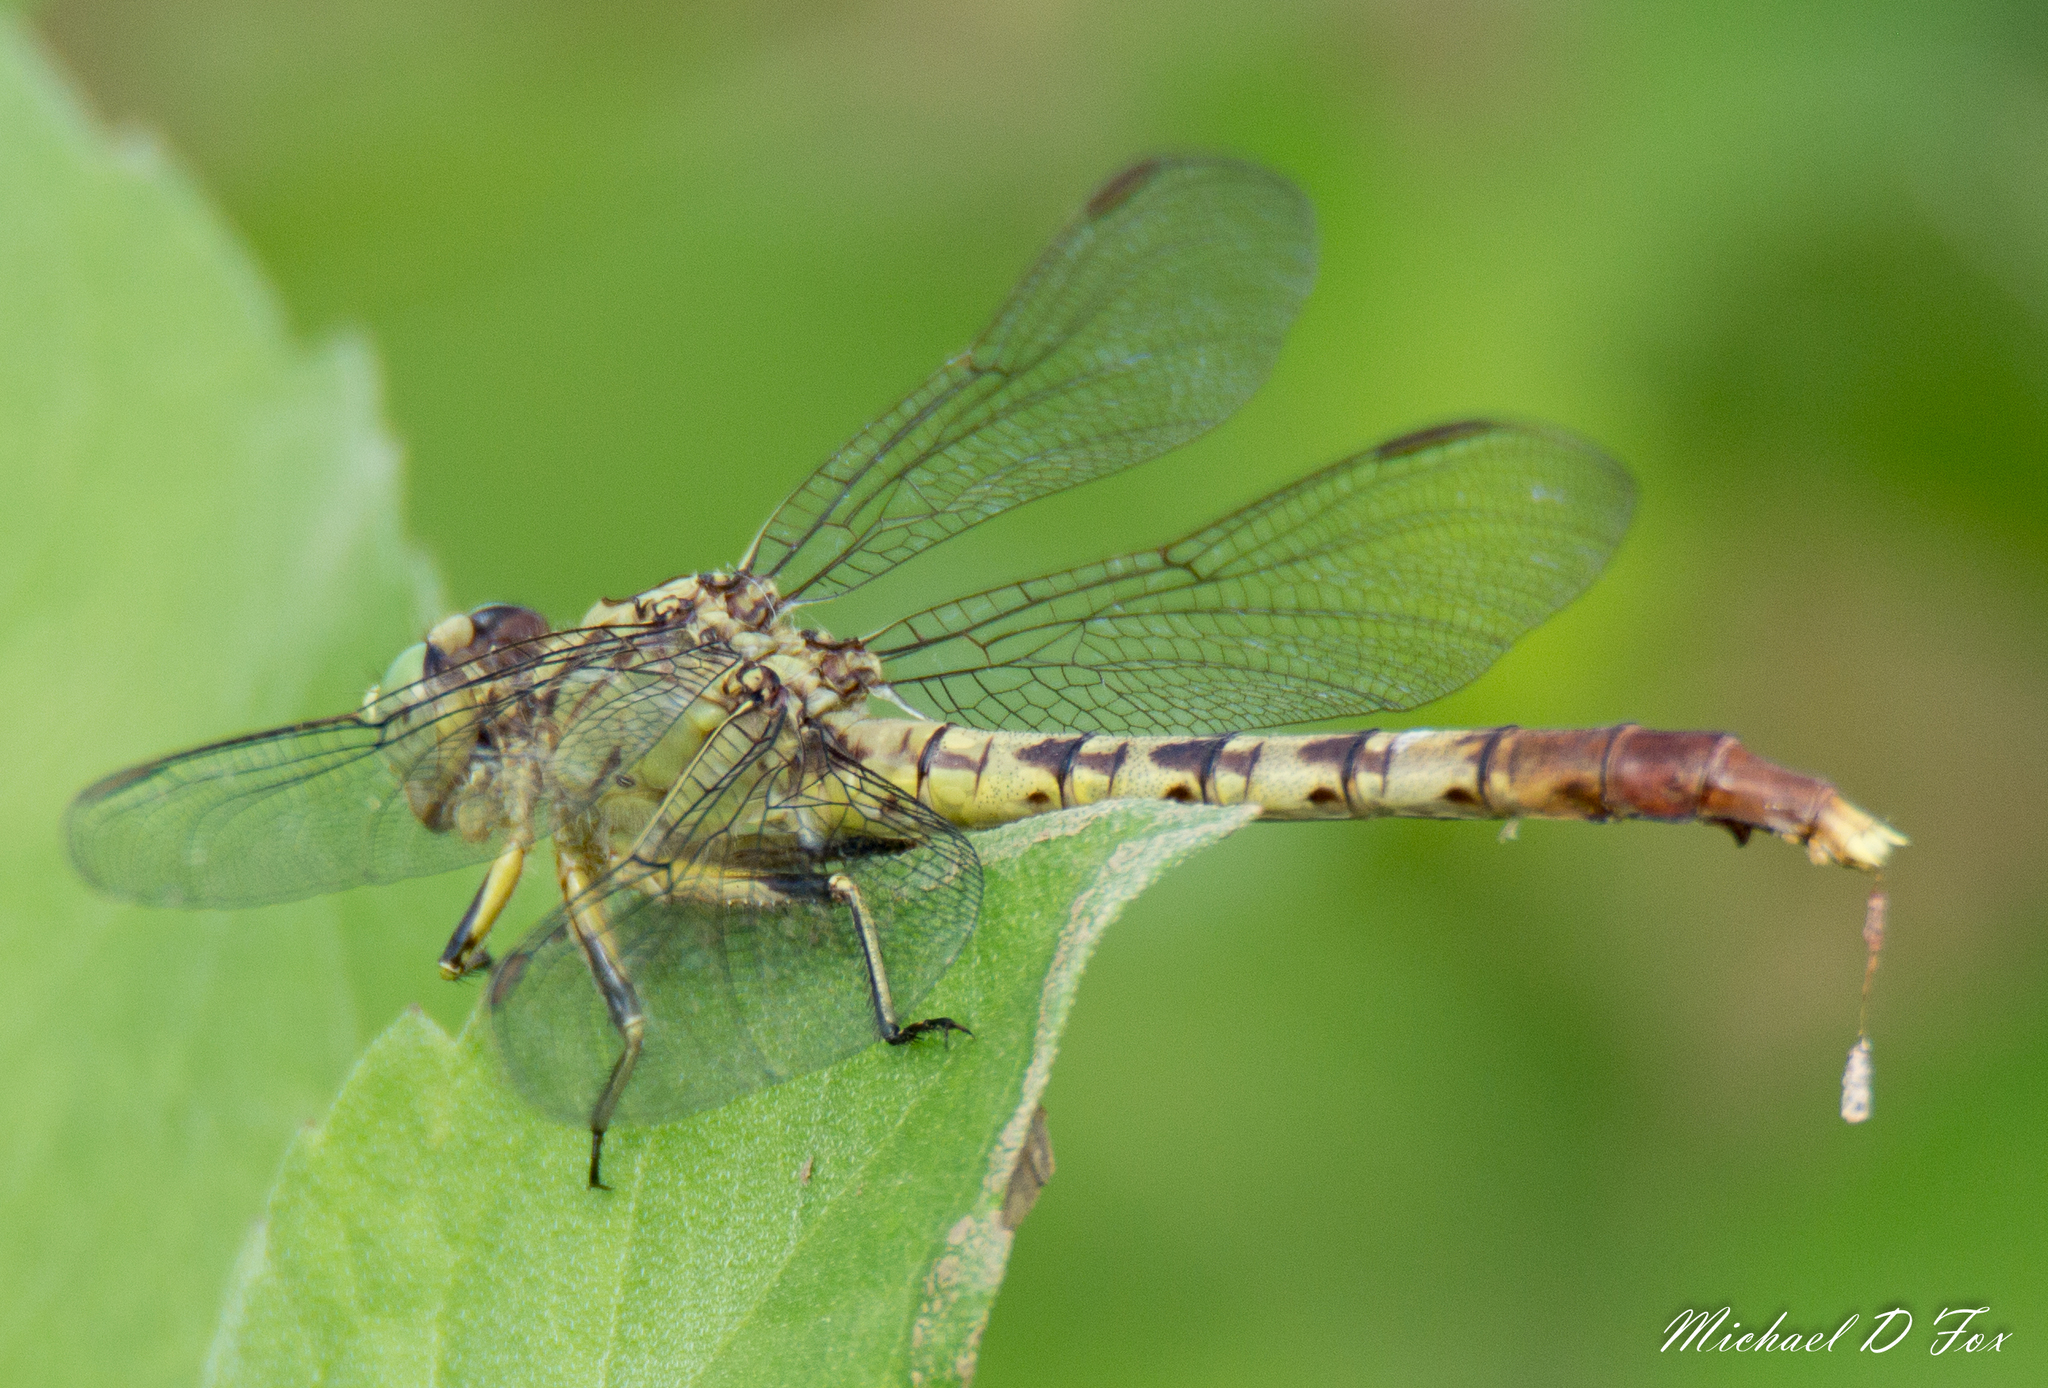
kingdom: Animalia
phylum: Arthropoda
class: Insecta
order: Odonata
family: Gomphidae
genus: Arigomphus
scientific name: Arigomphus submedianus
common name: Jade clubtail
